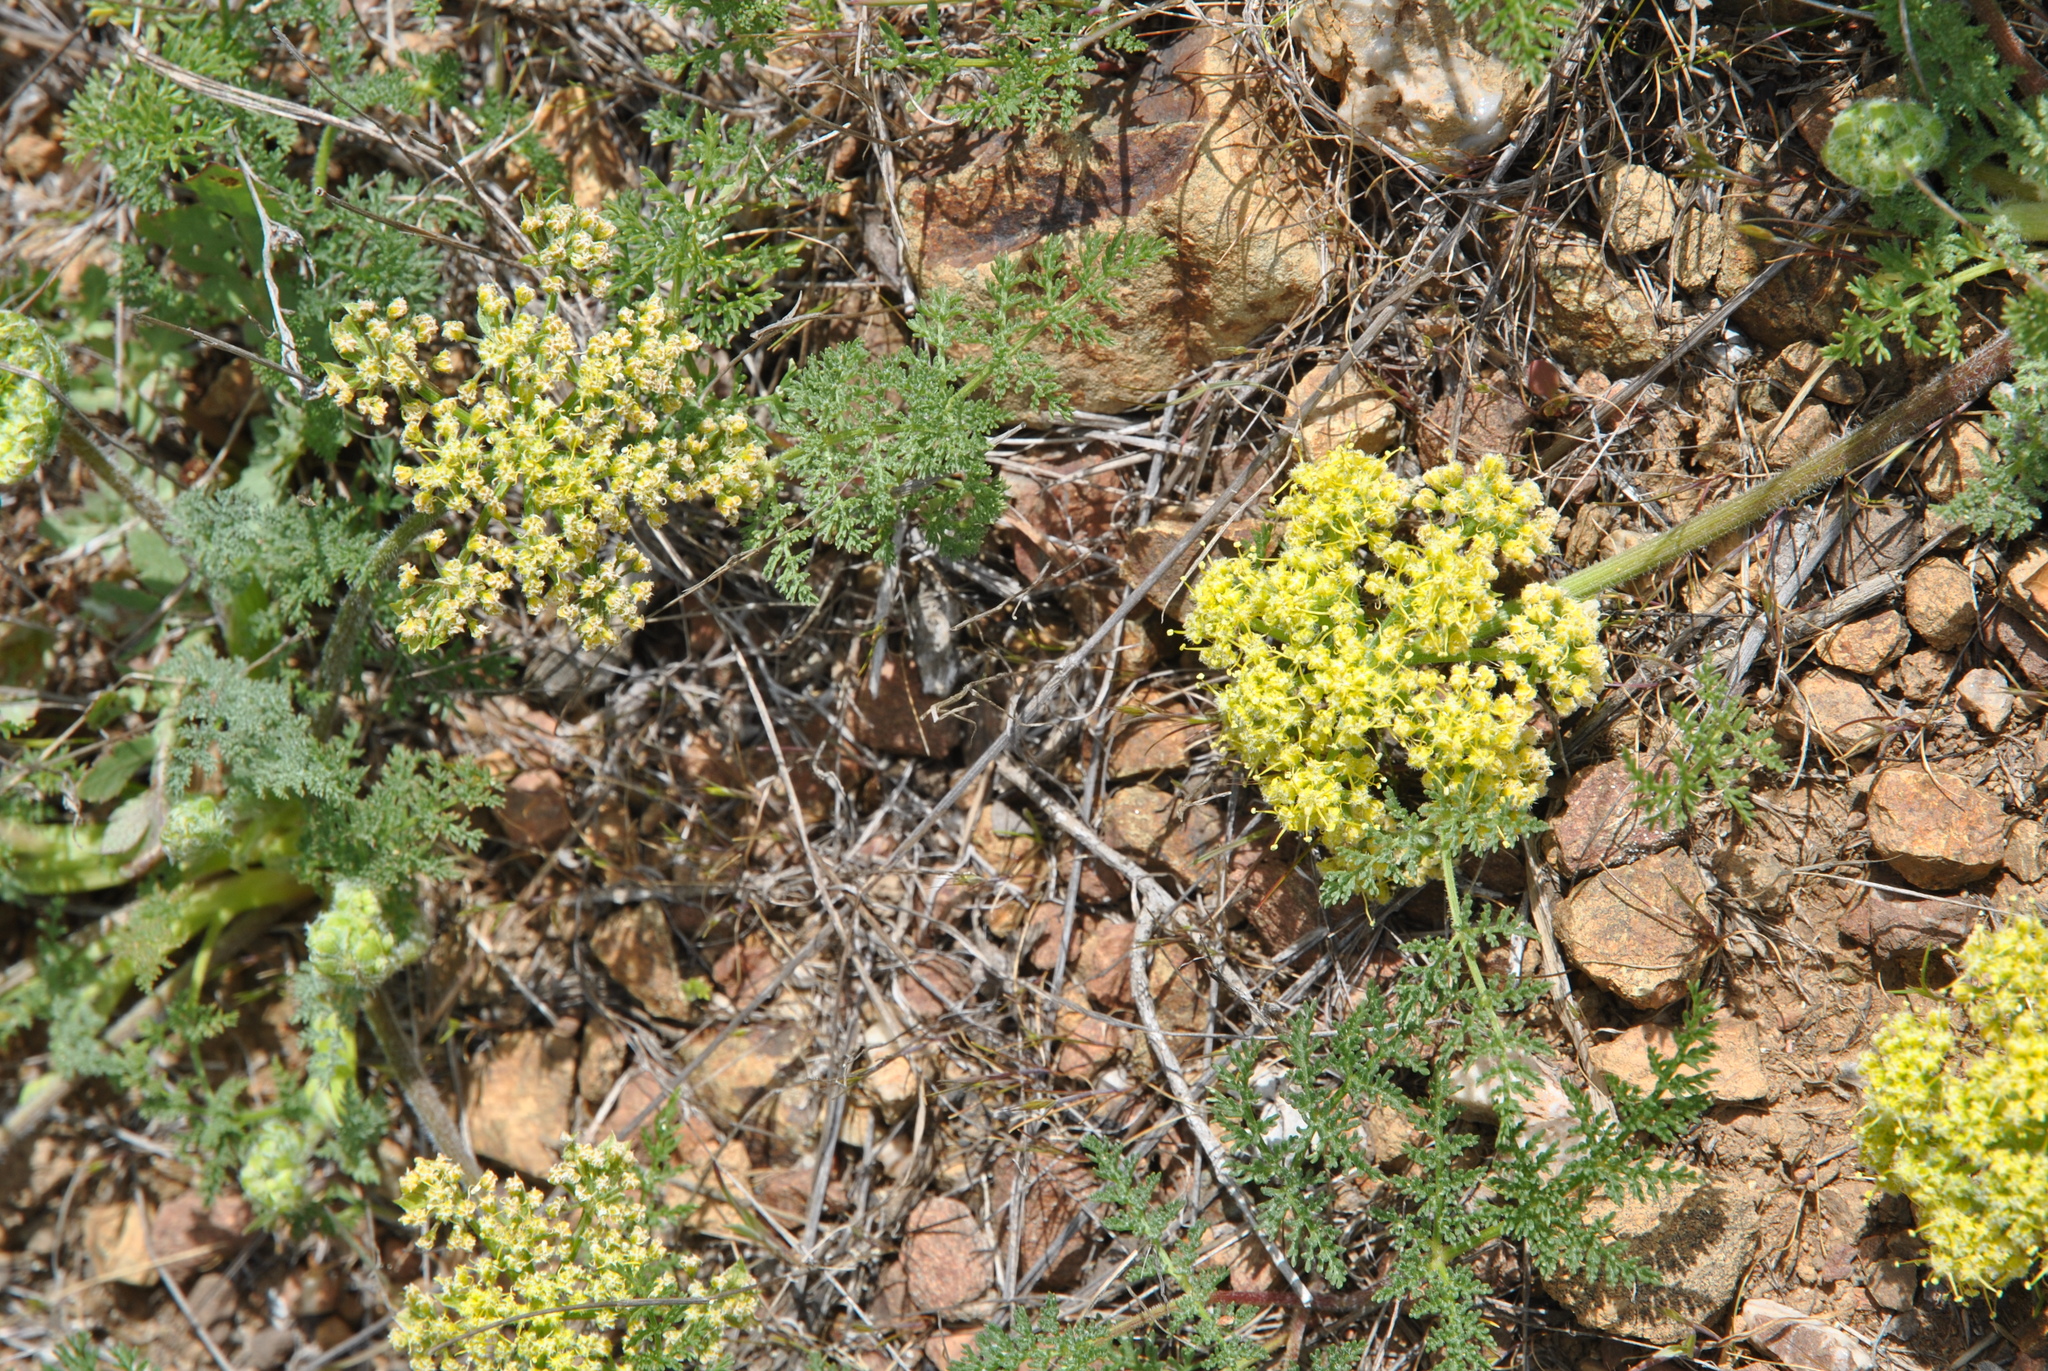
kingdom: Plantae
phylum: Tracheophyta
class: Magnoliopsida
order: Apiales
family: Apiaceae
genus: Lomatium
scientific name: Lomatium dasycarpum
